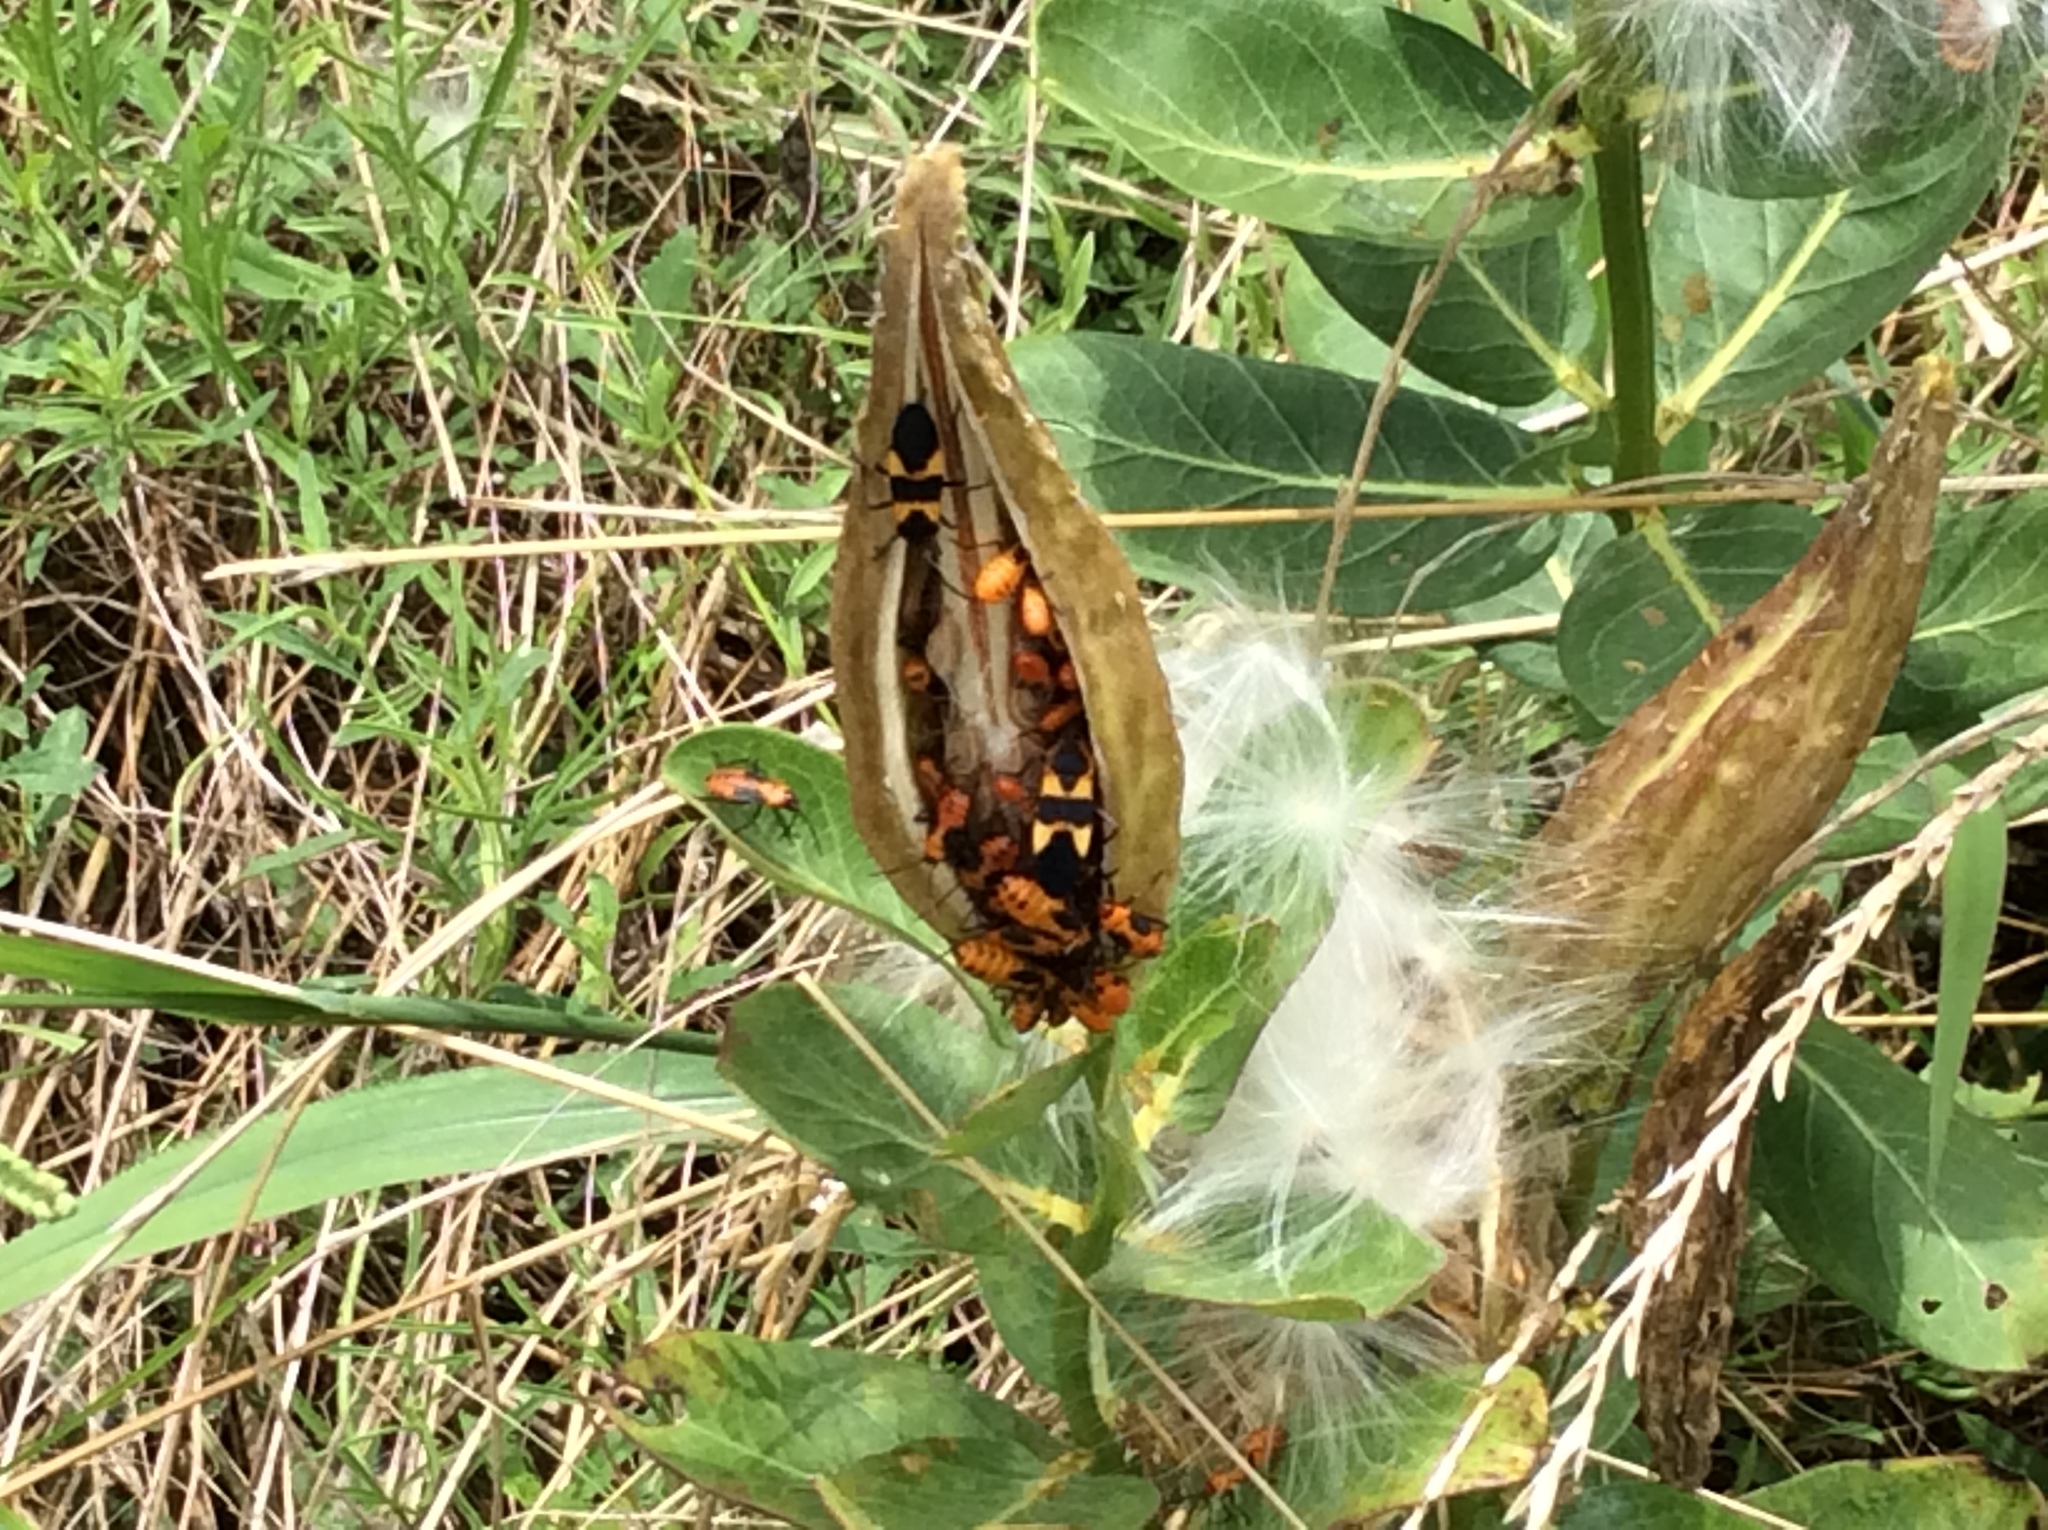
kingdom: Animalia
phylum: Arthropoda
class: Insecta
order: Hemiptera
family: Lygaeidae
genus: Oncopeltus
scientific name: Oncopeltus fasciatus
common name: Large milkweed bug
